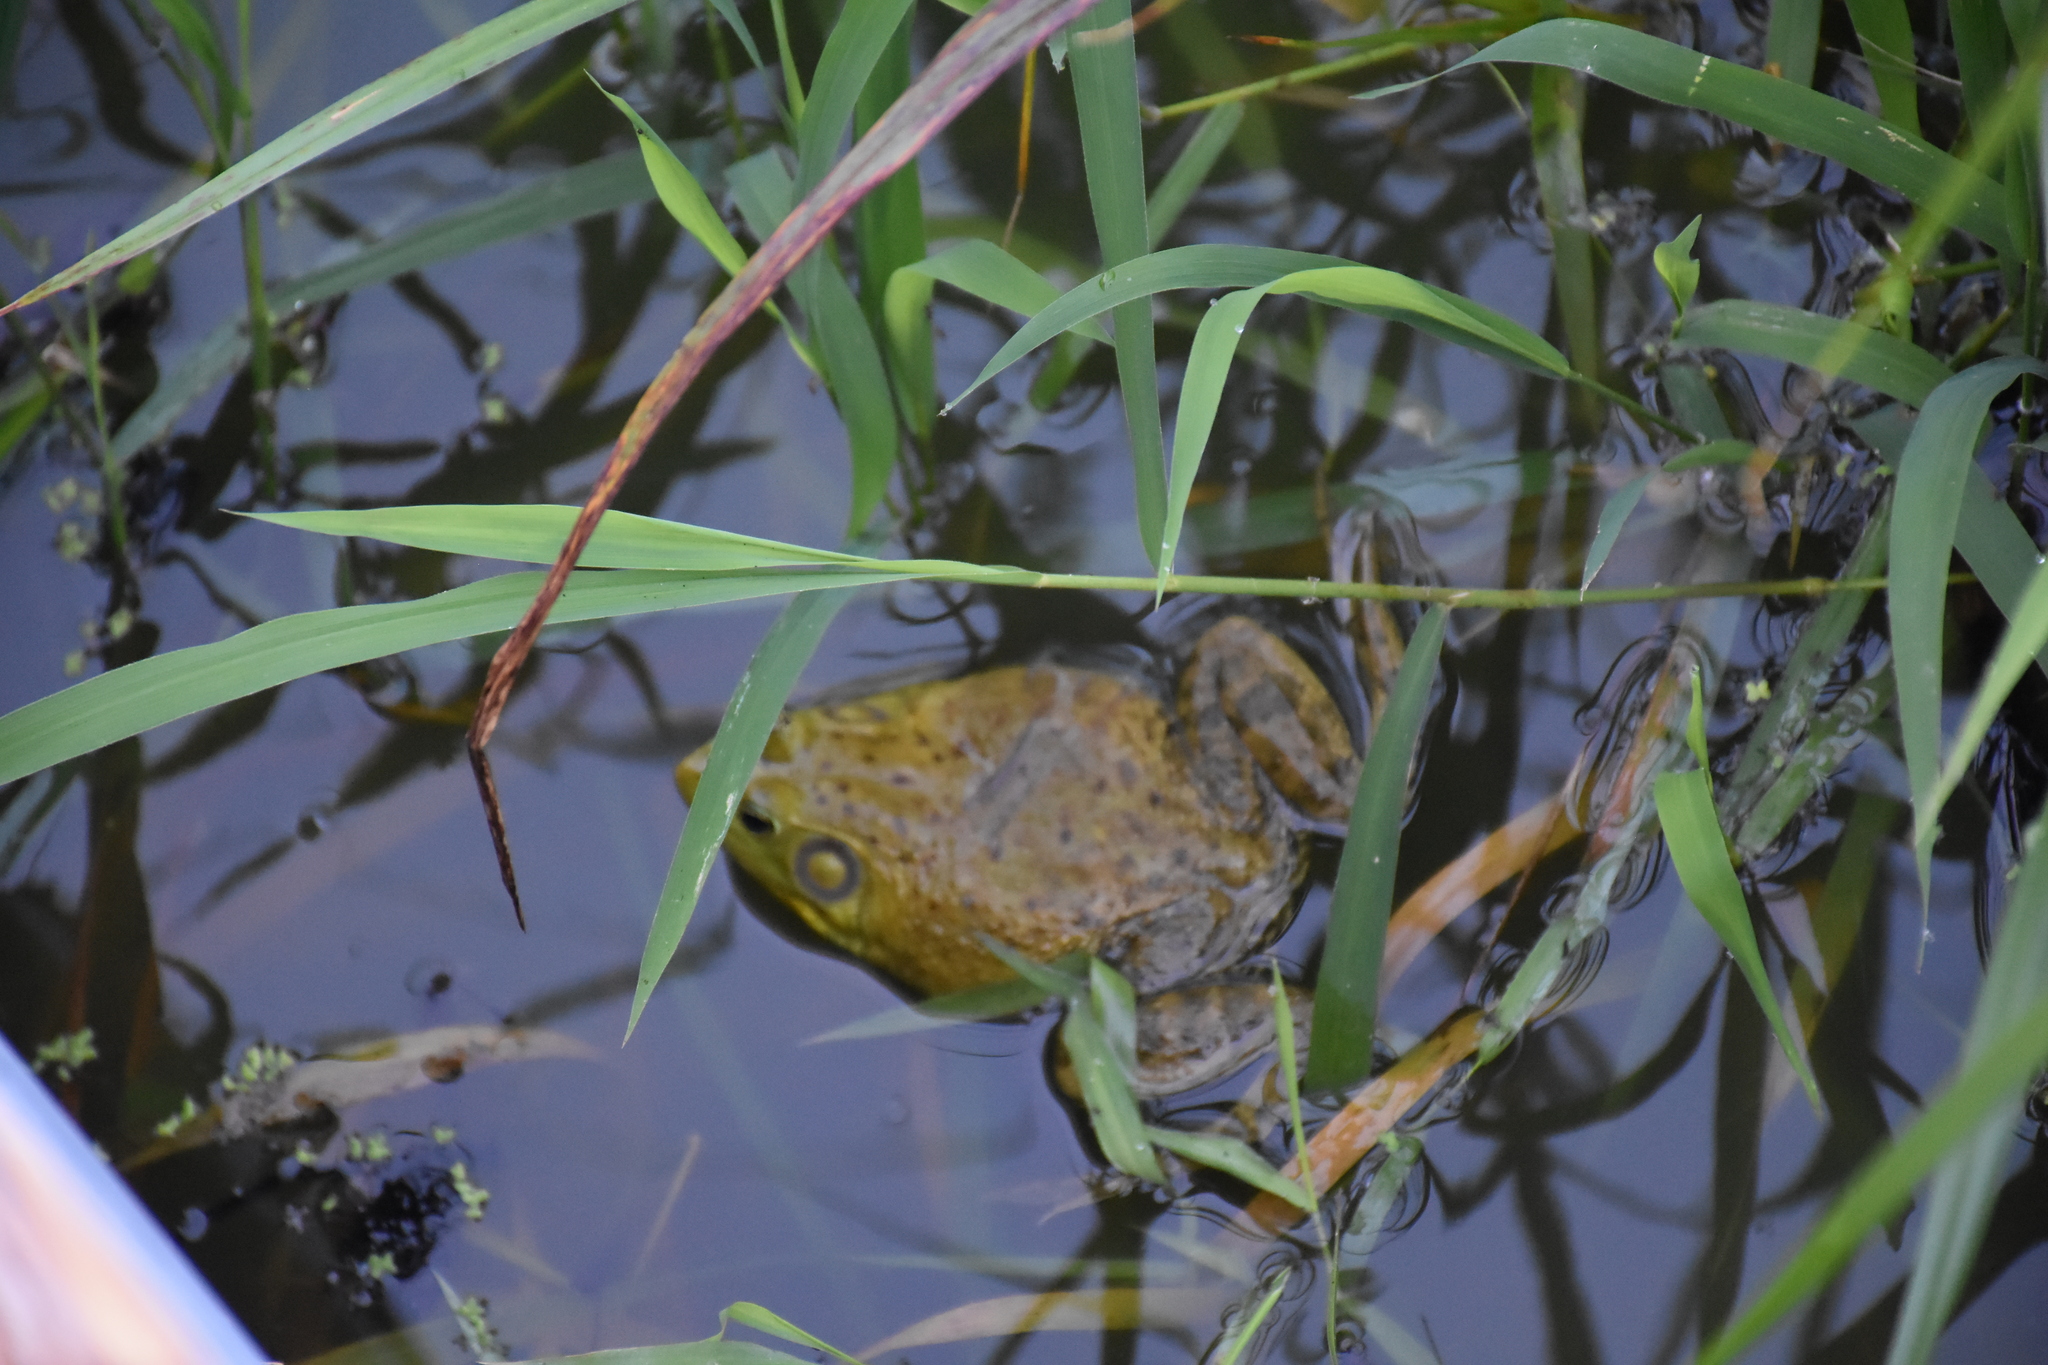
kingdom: Animalia
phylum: Chordata
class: Amphibia
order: Anura
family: Ranidae
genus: Lithobates
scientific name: Lithobates clamitans
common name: Green frog
